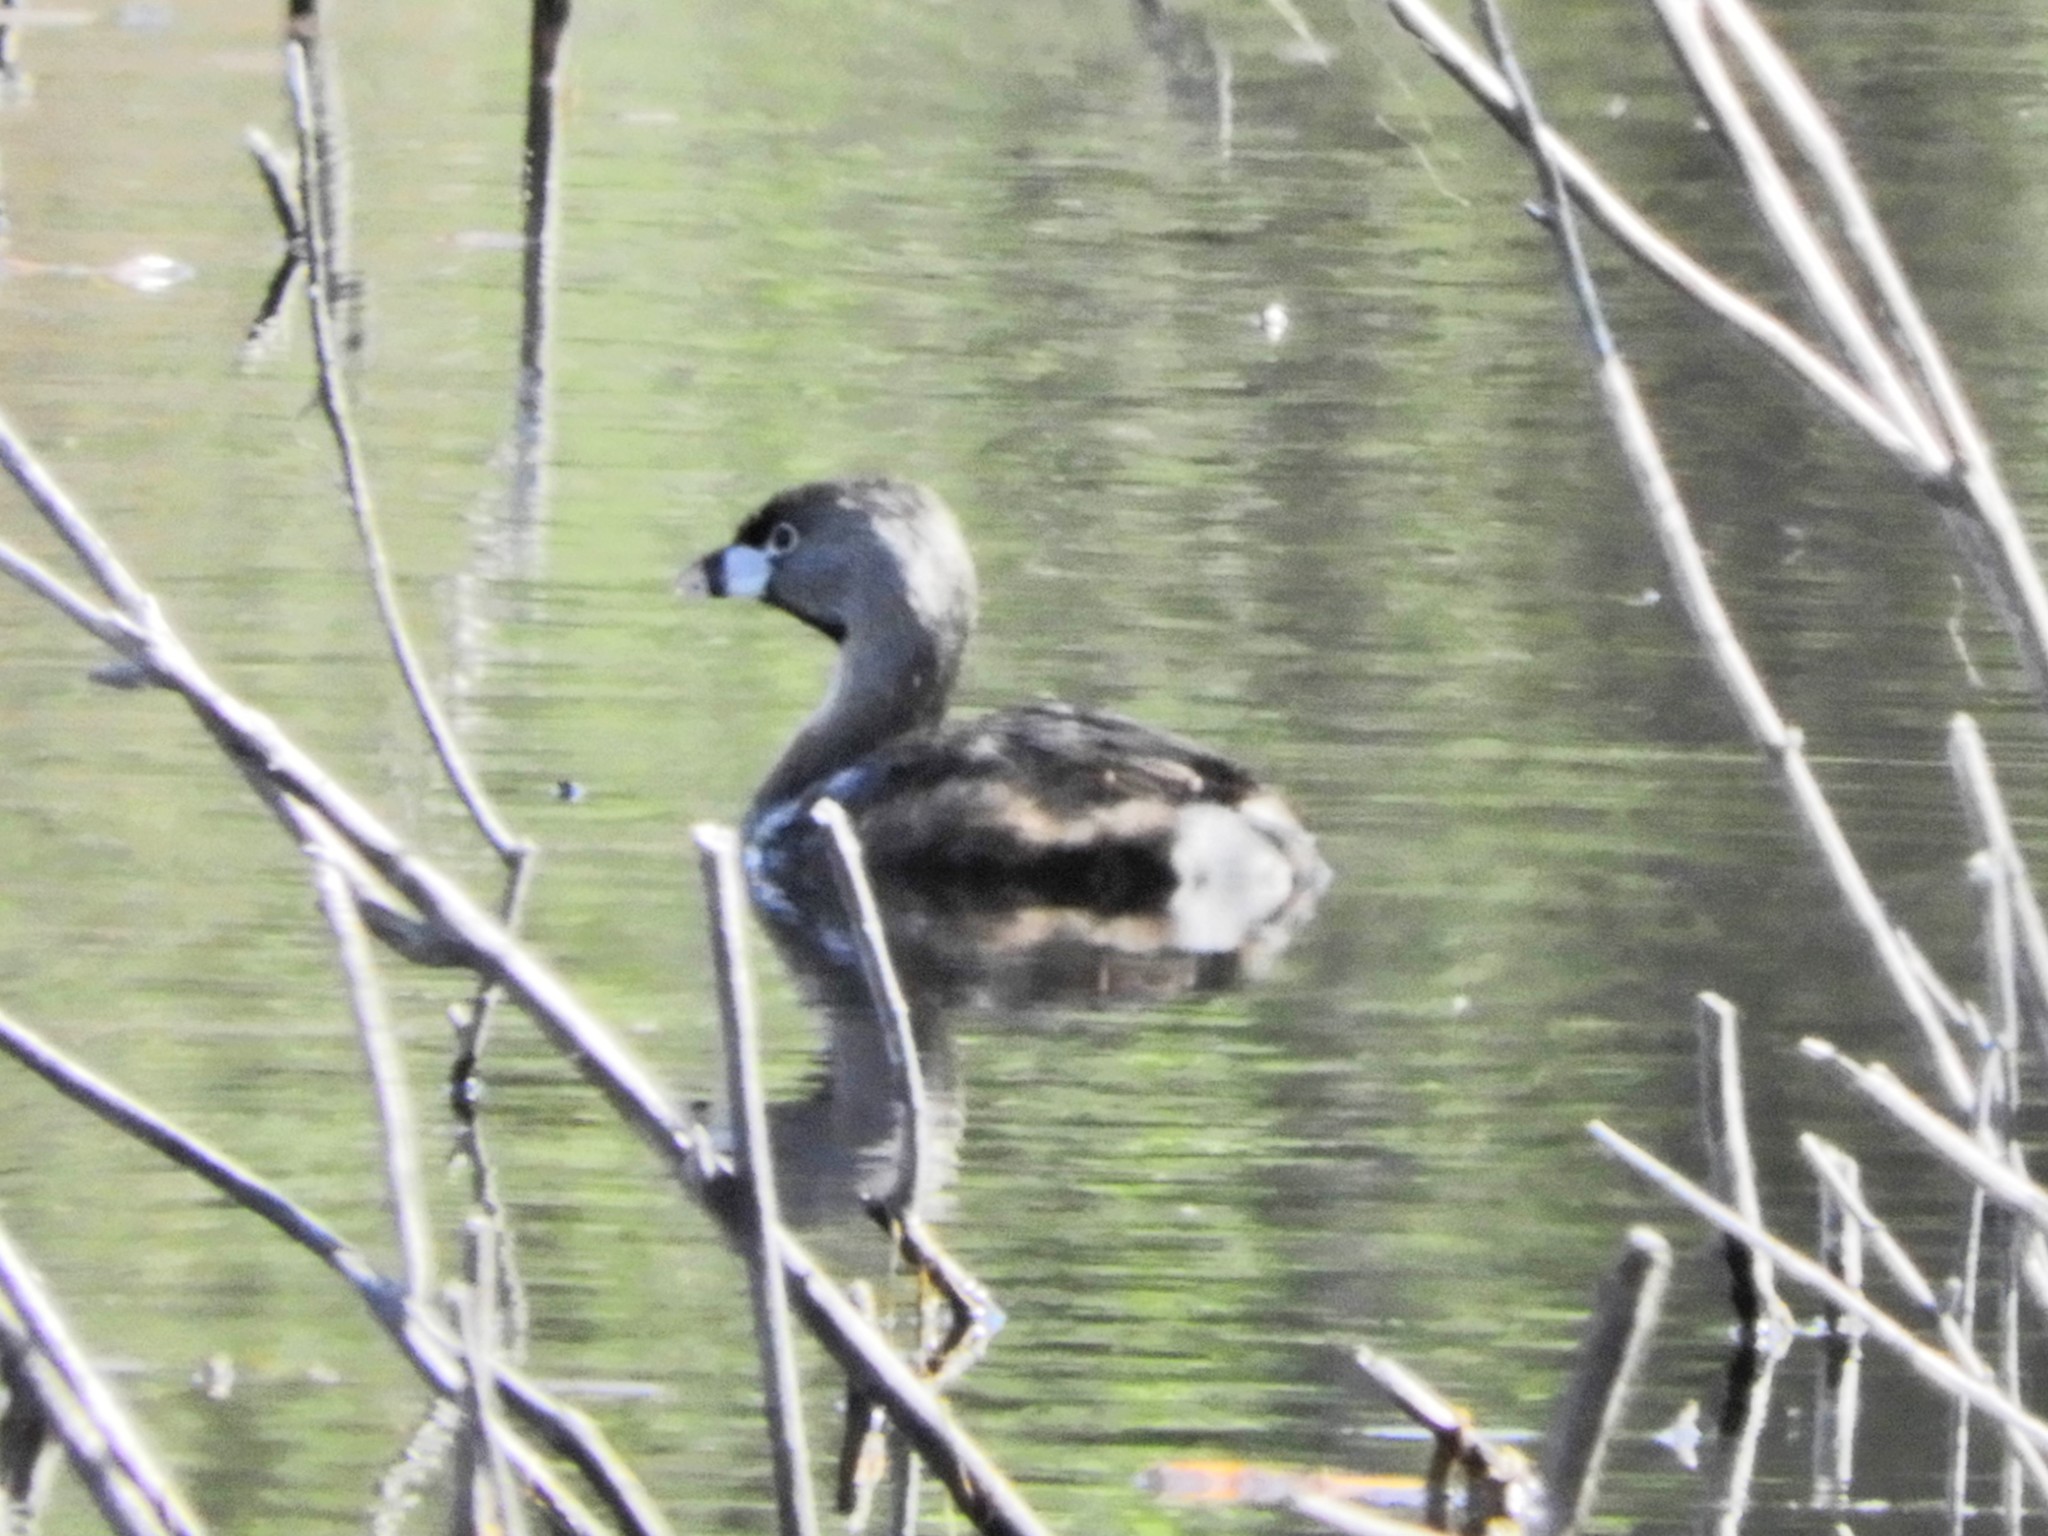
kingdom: Animalia
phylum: Chordata
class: Aves
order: Podicipediformes
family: Podicipedidae
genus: Podilymbus
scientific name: Podilymbus podiceps
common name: Pied-billed grebe
